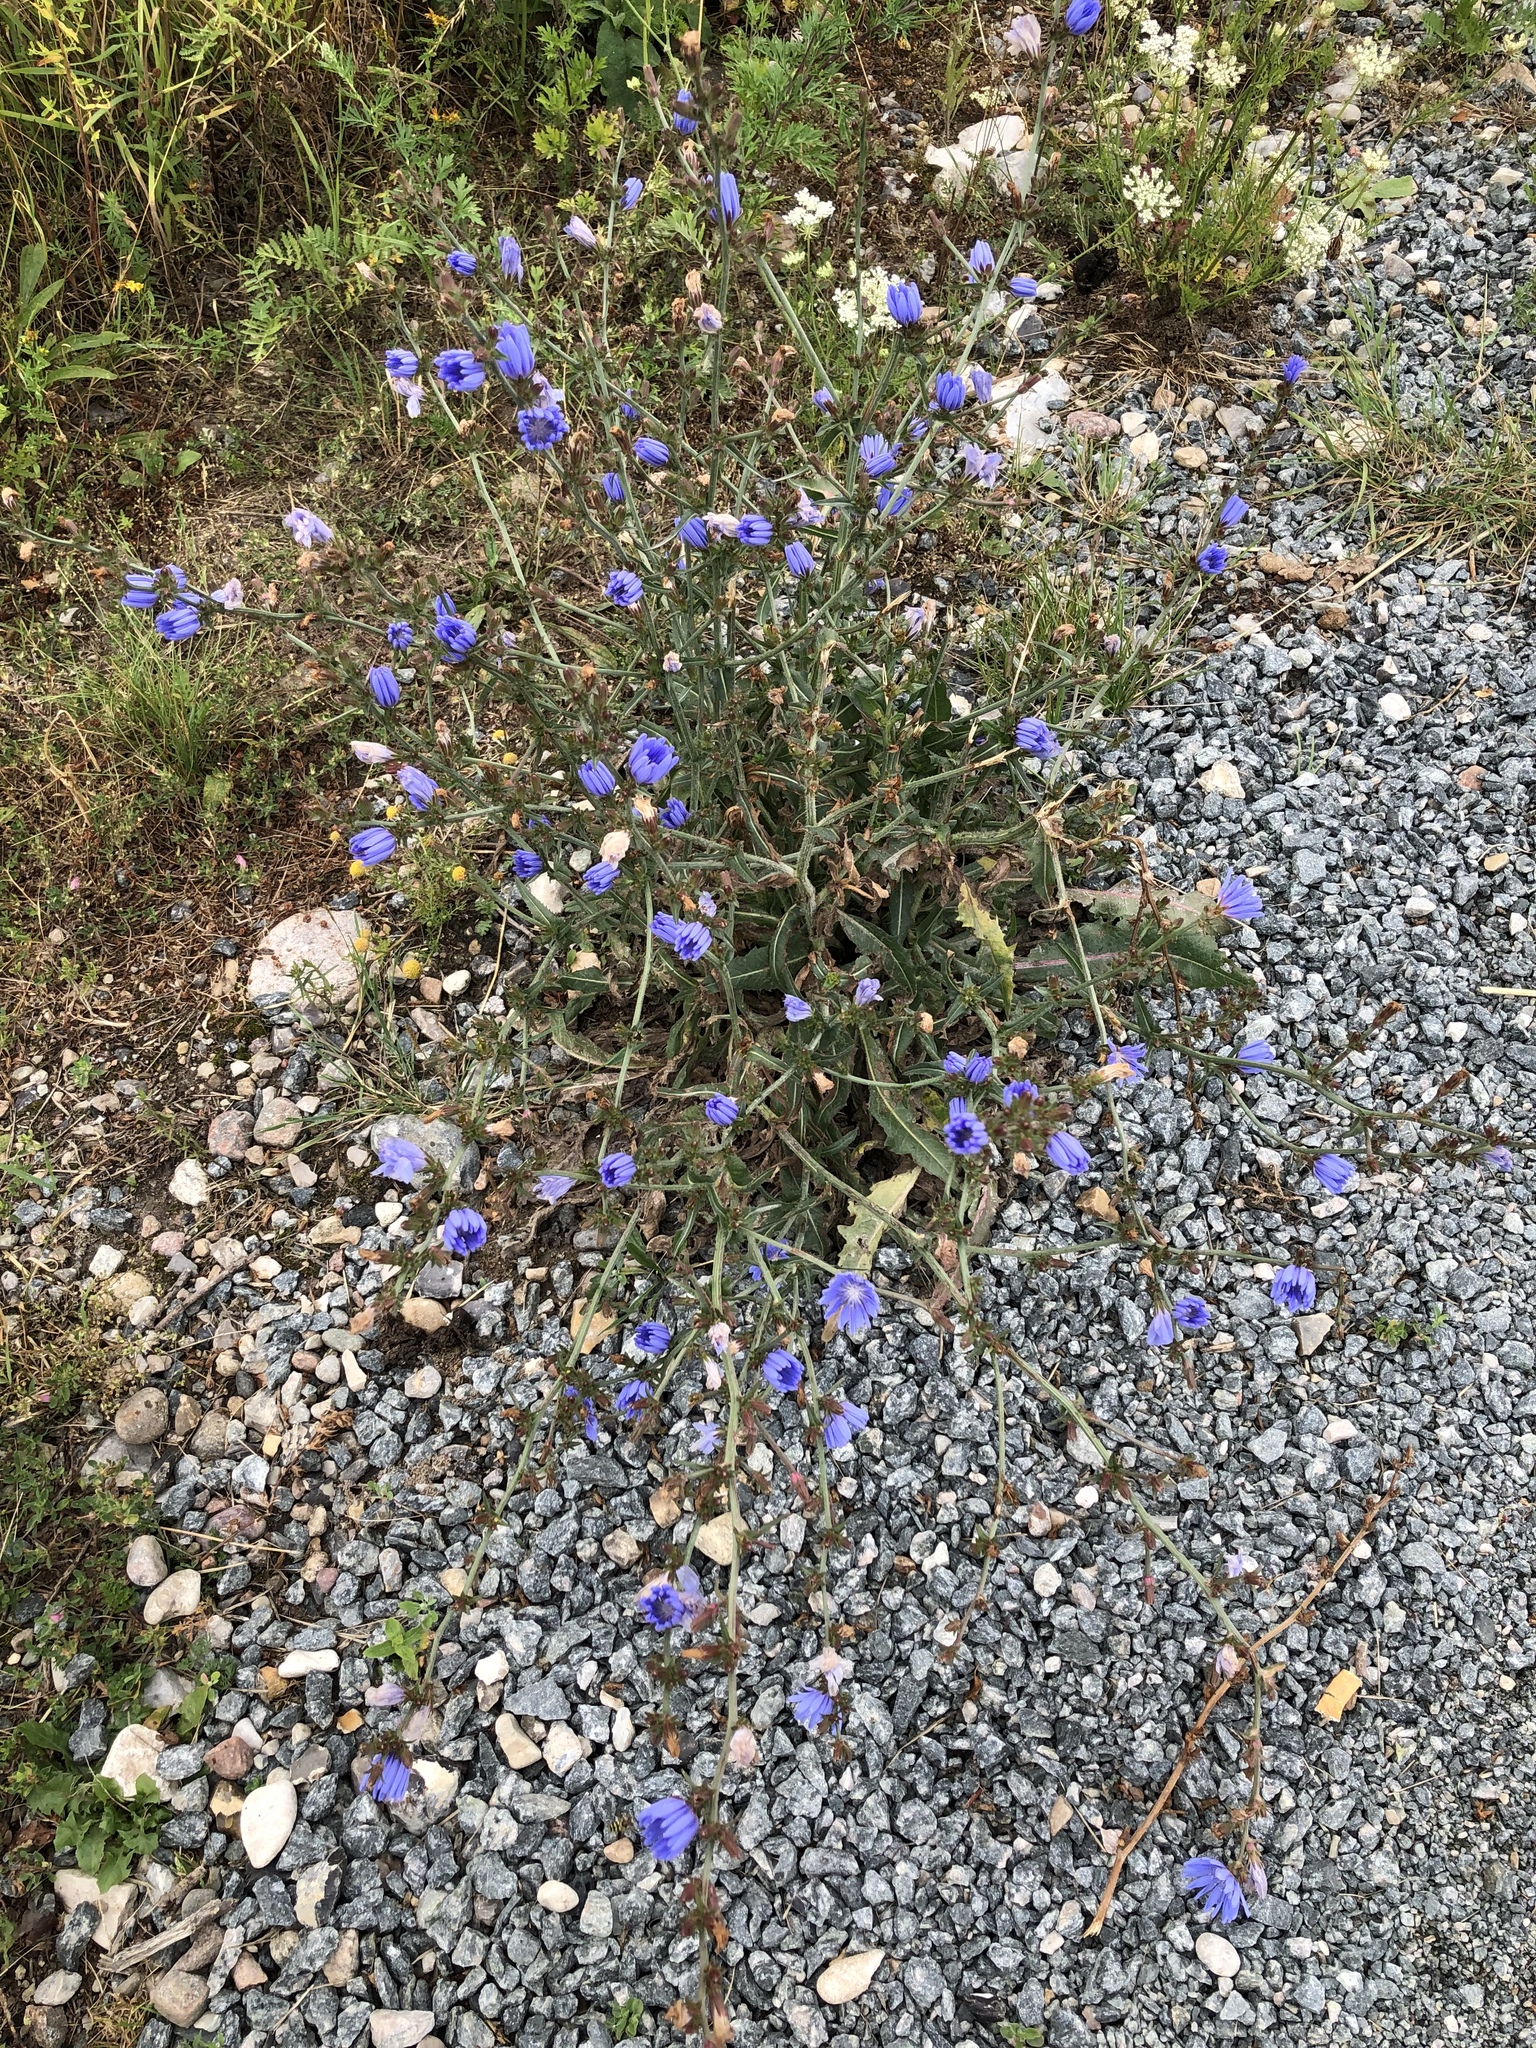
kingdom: Plantae
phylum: Tracheophyta
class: Magnoliopsida
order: Asterales
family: Asteraceae
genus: Cichorium
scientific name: Cichorium intybus
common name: Chicory
